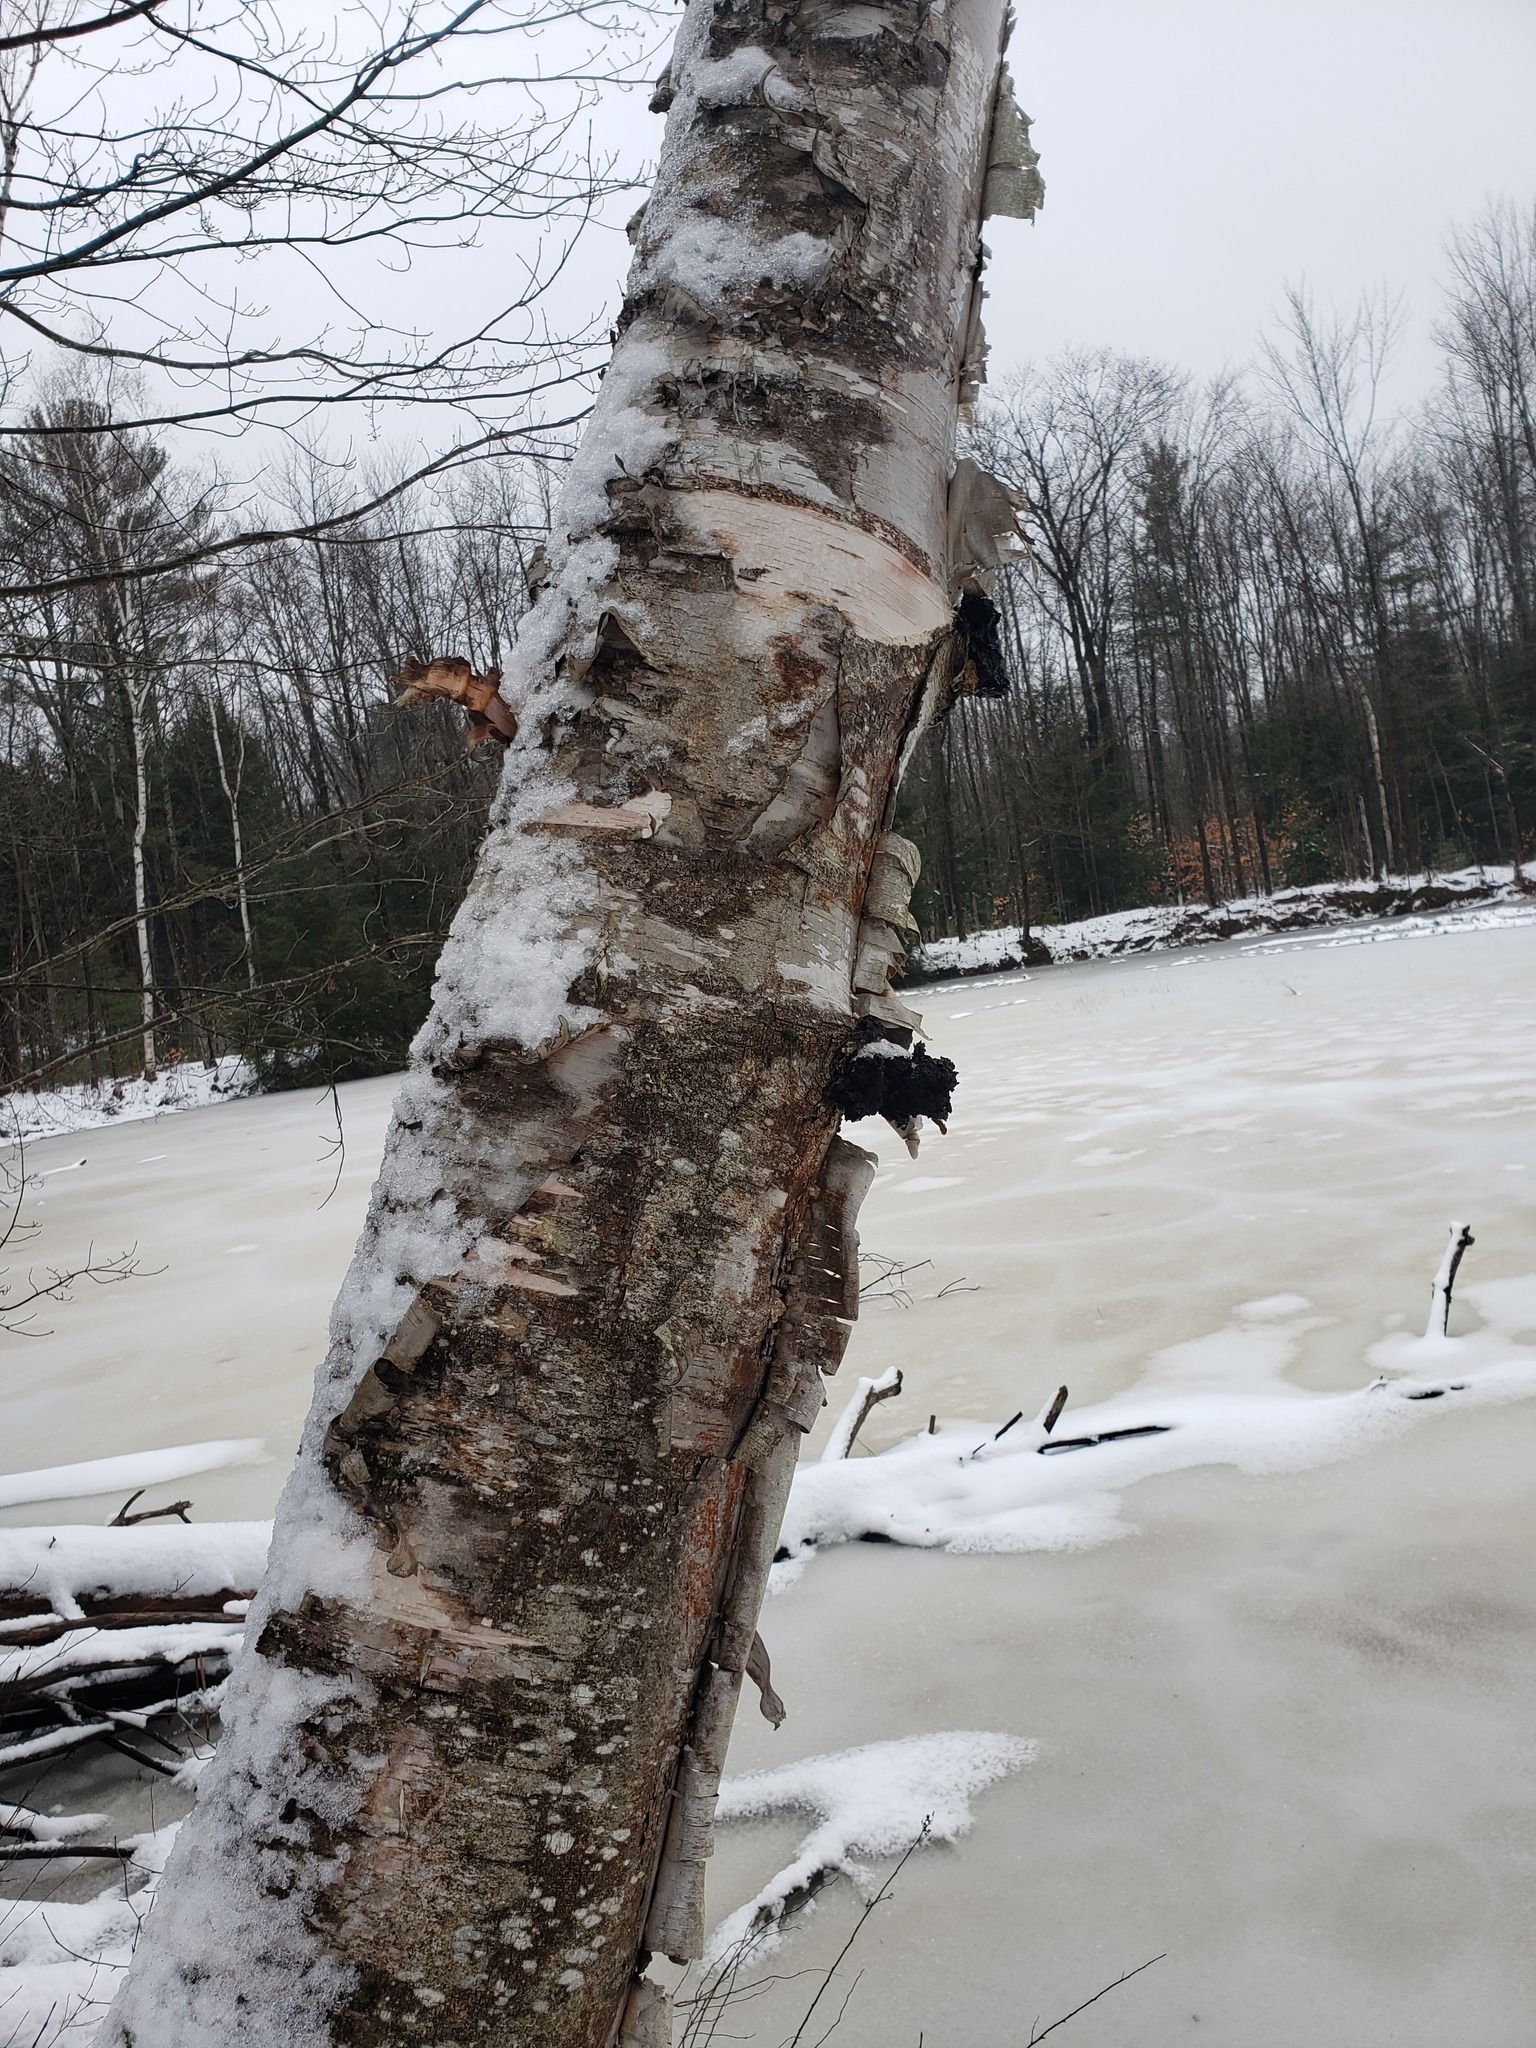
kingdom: Plantae
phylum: Tracheophyta
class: Magnoliopsida
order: Fagales
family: Betulaceae
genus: Betula
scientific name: Betula papyrifera
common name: Paper birch
